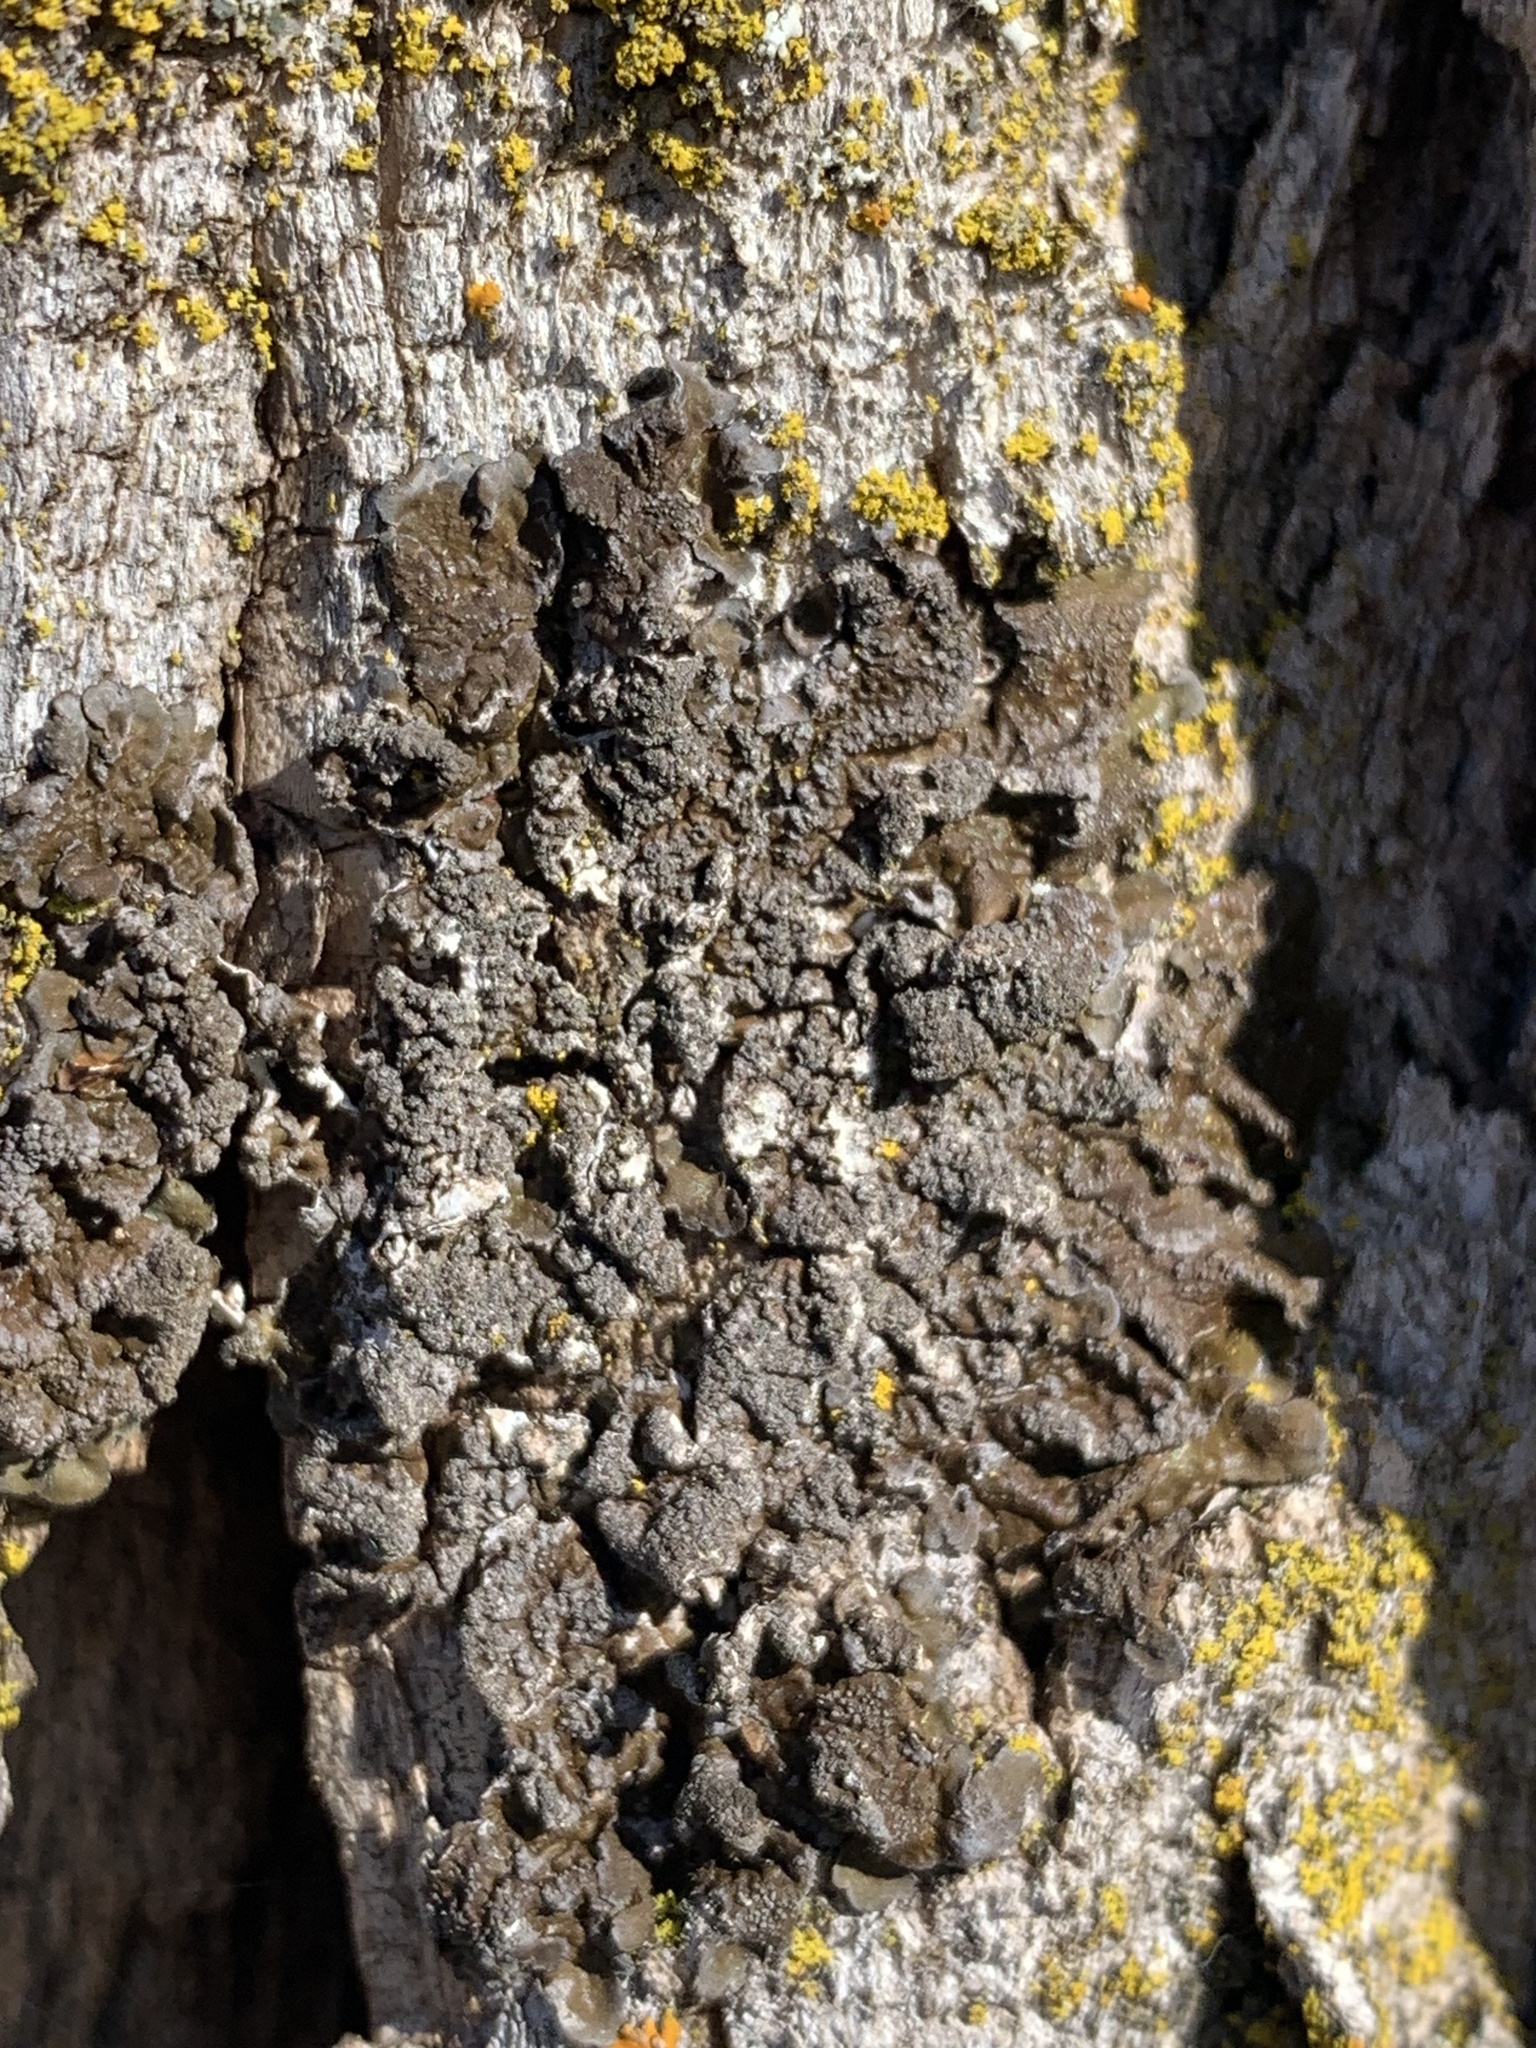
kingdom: Fungi
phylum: Ascomycota
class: Lecanoromycetes
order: Lecanorales
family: Parmeliaceae
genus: Melanelixia
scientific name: Melanelixia subargentifera
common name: Whiskered camouflage lichen
